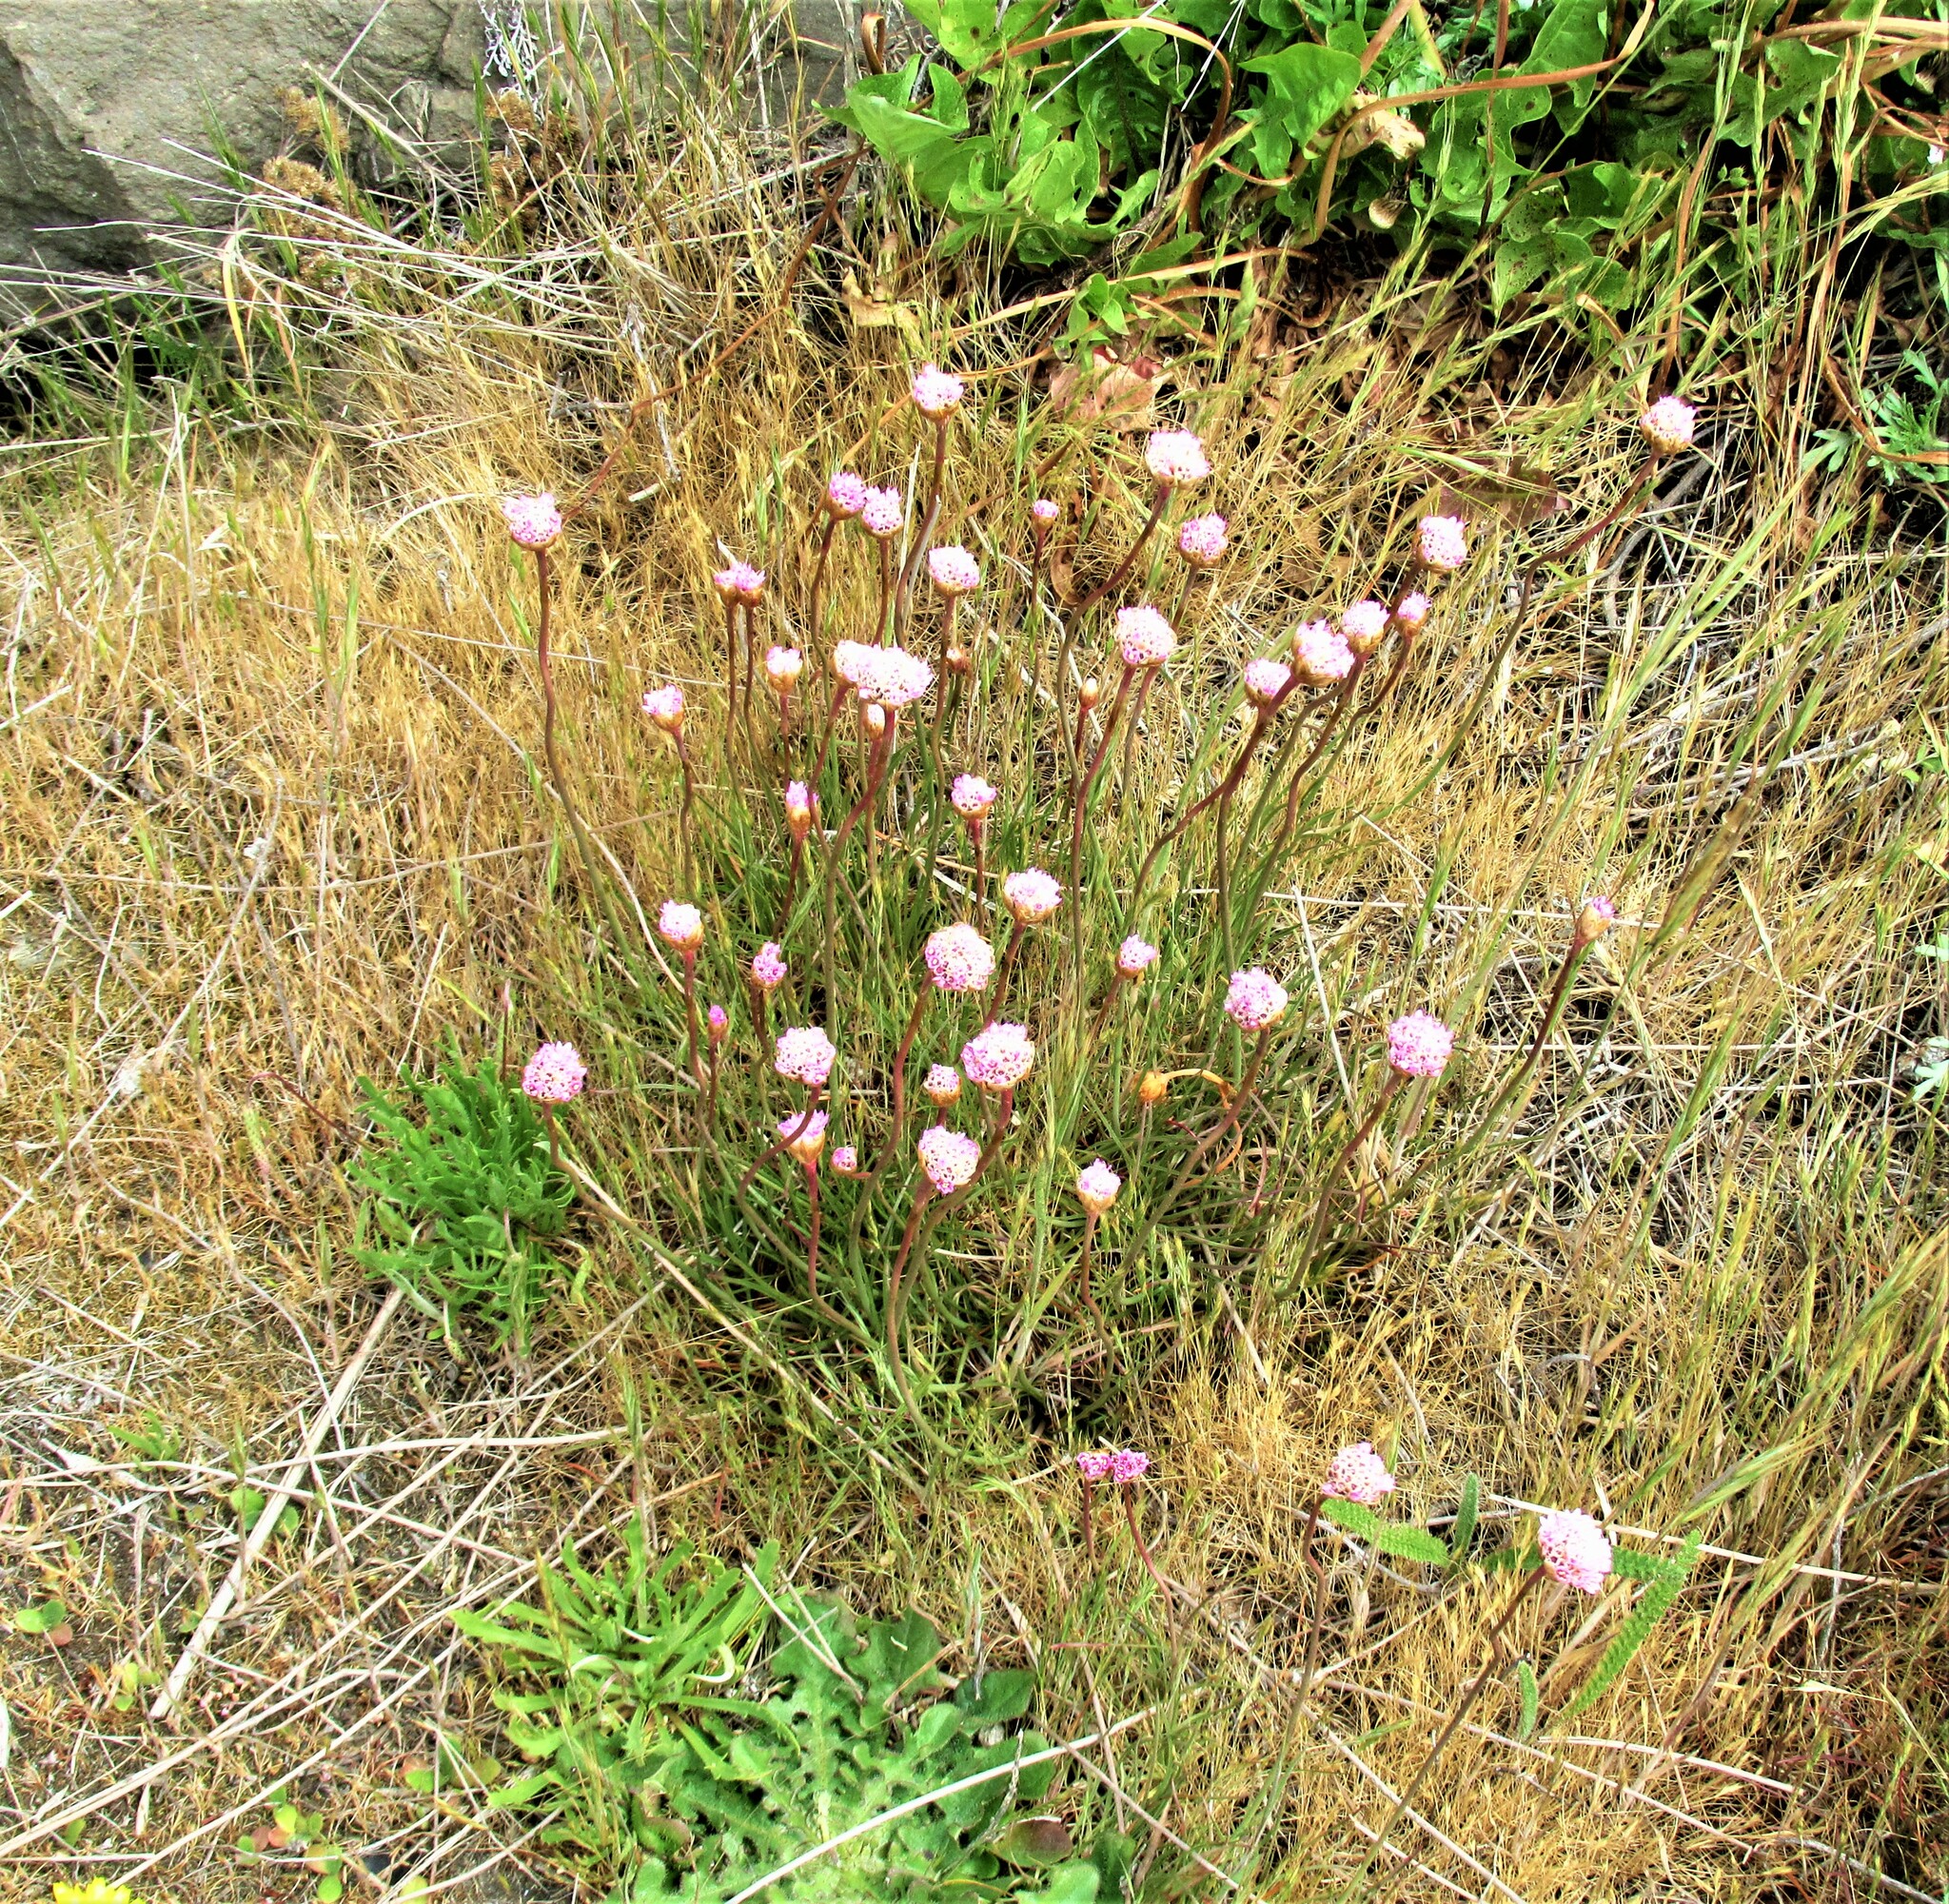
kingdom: Plantae
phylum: Tracheophyta
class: Magnoliopsida
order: Caryophyllales
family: Plumbaginaceae
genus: Armeria
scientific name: Armeria maritima
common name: Thrift
